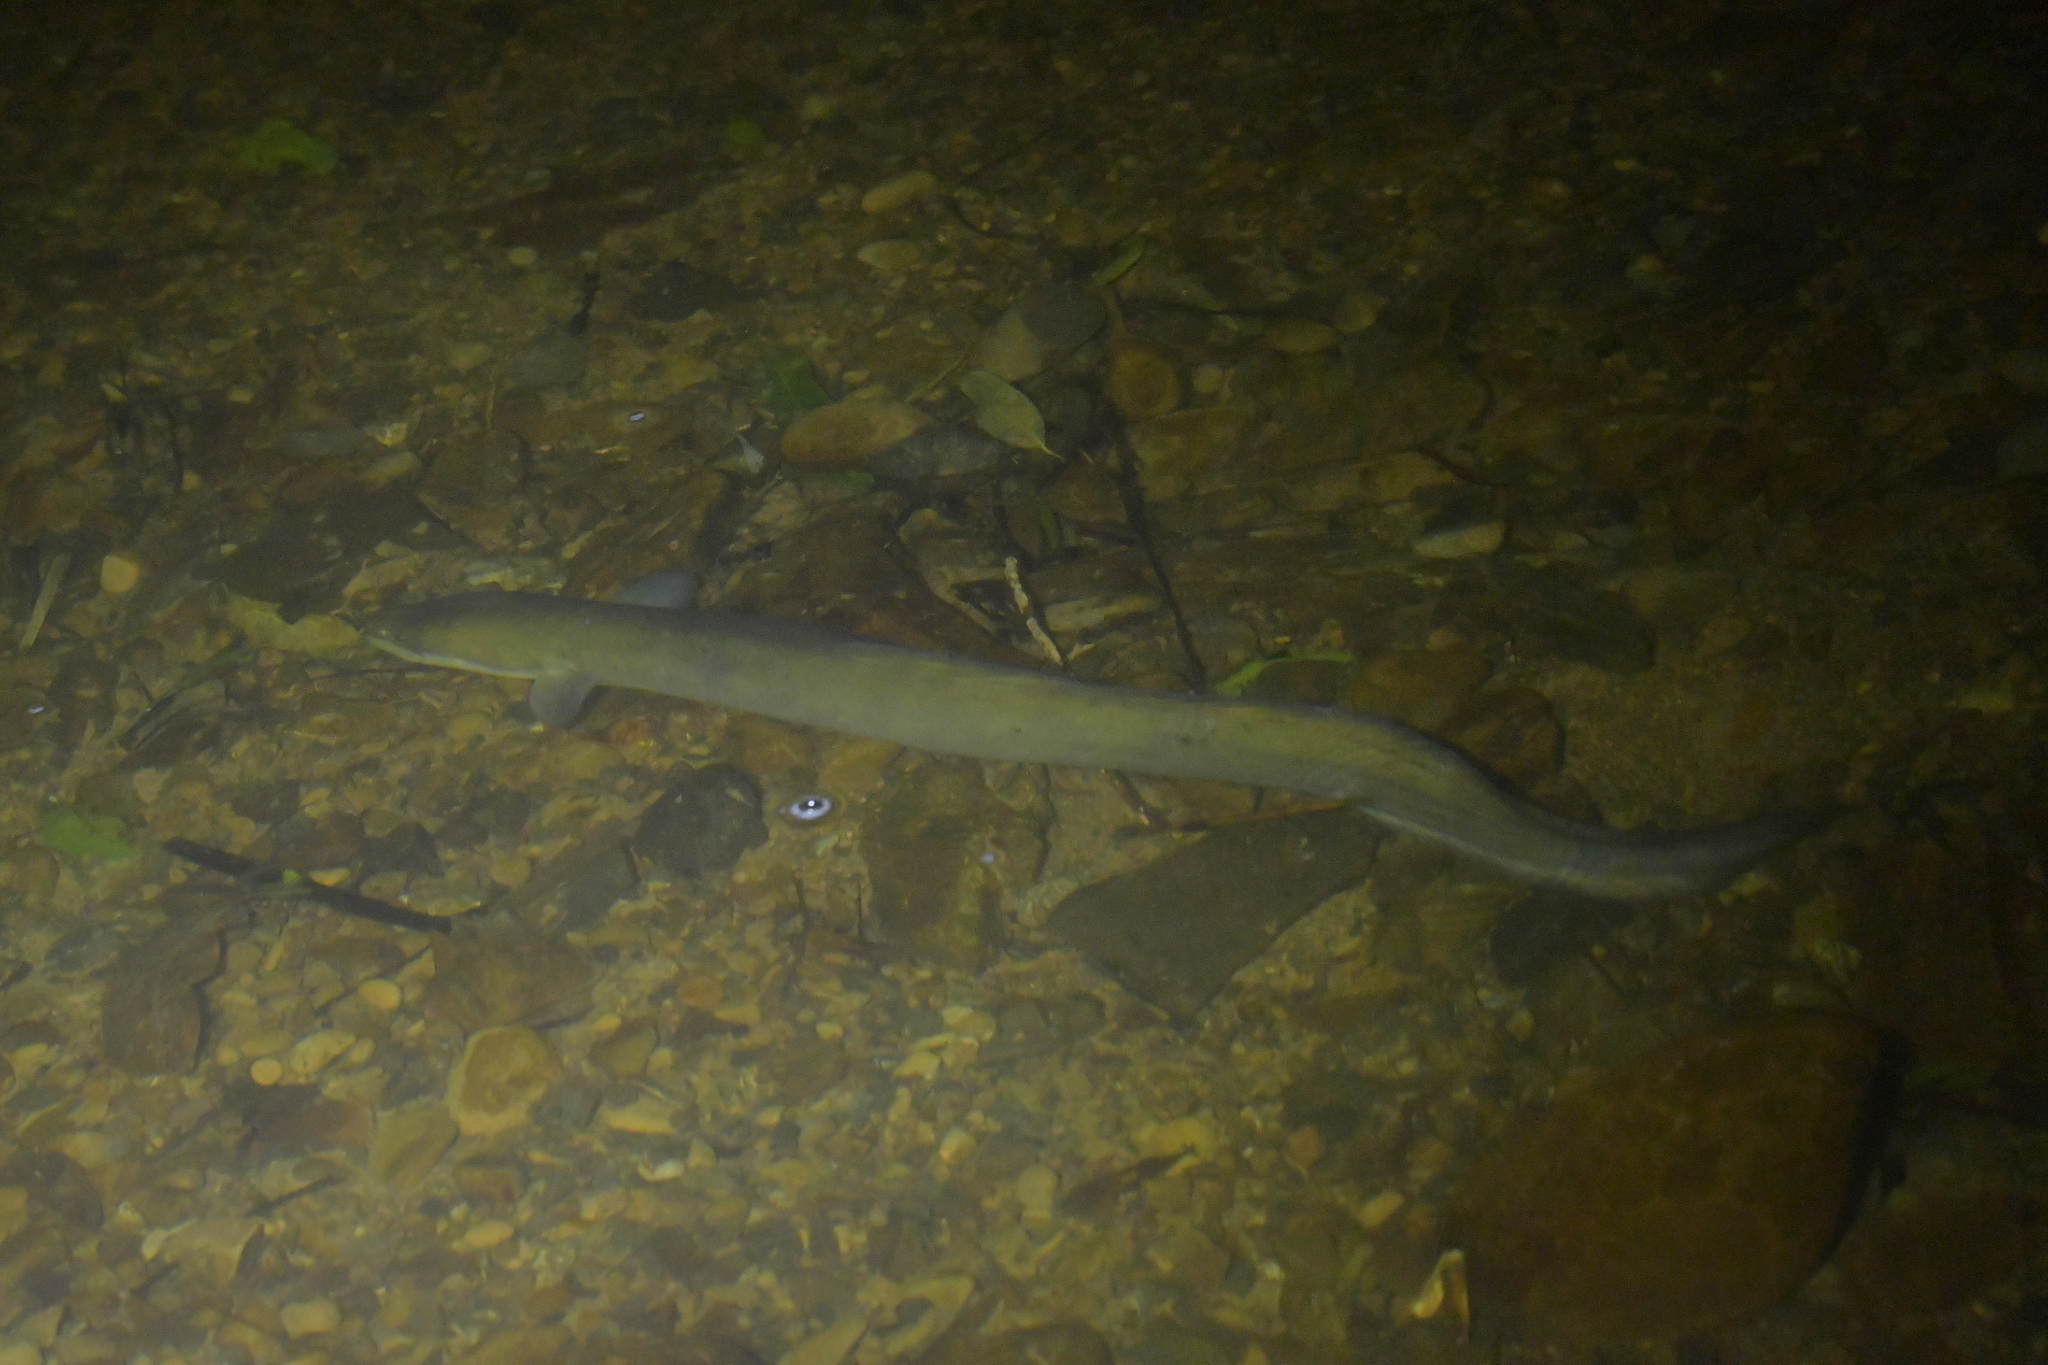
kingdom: Animalia
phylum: Chordata
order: Anguilliformes
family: Anguillidae
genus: Anguilla
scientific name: Anguilla dieffenbachii
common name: New zealand longfin eel
